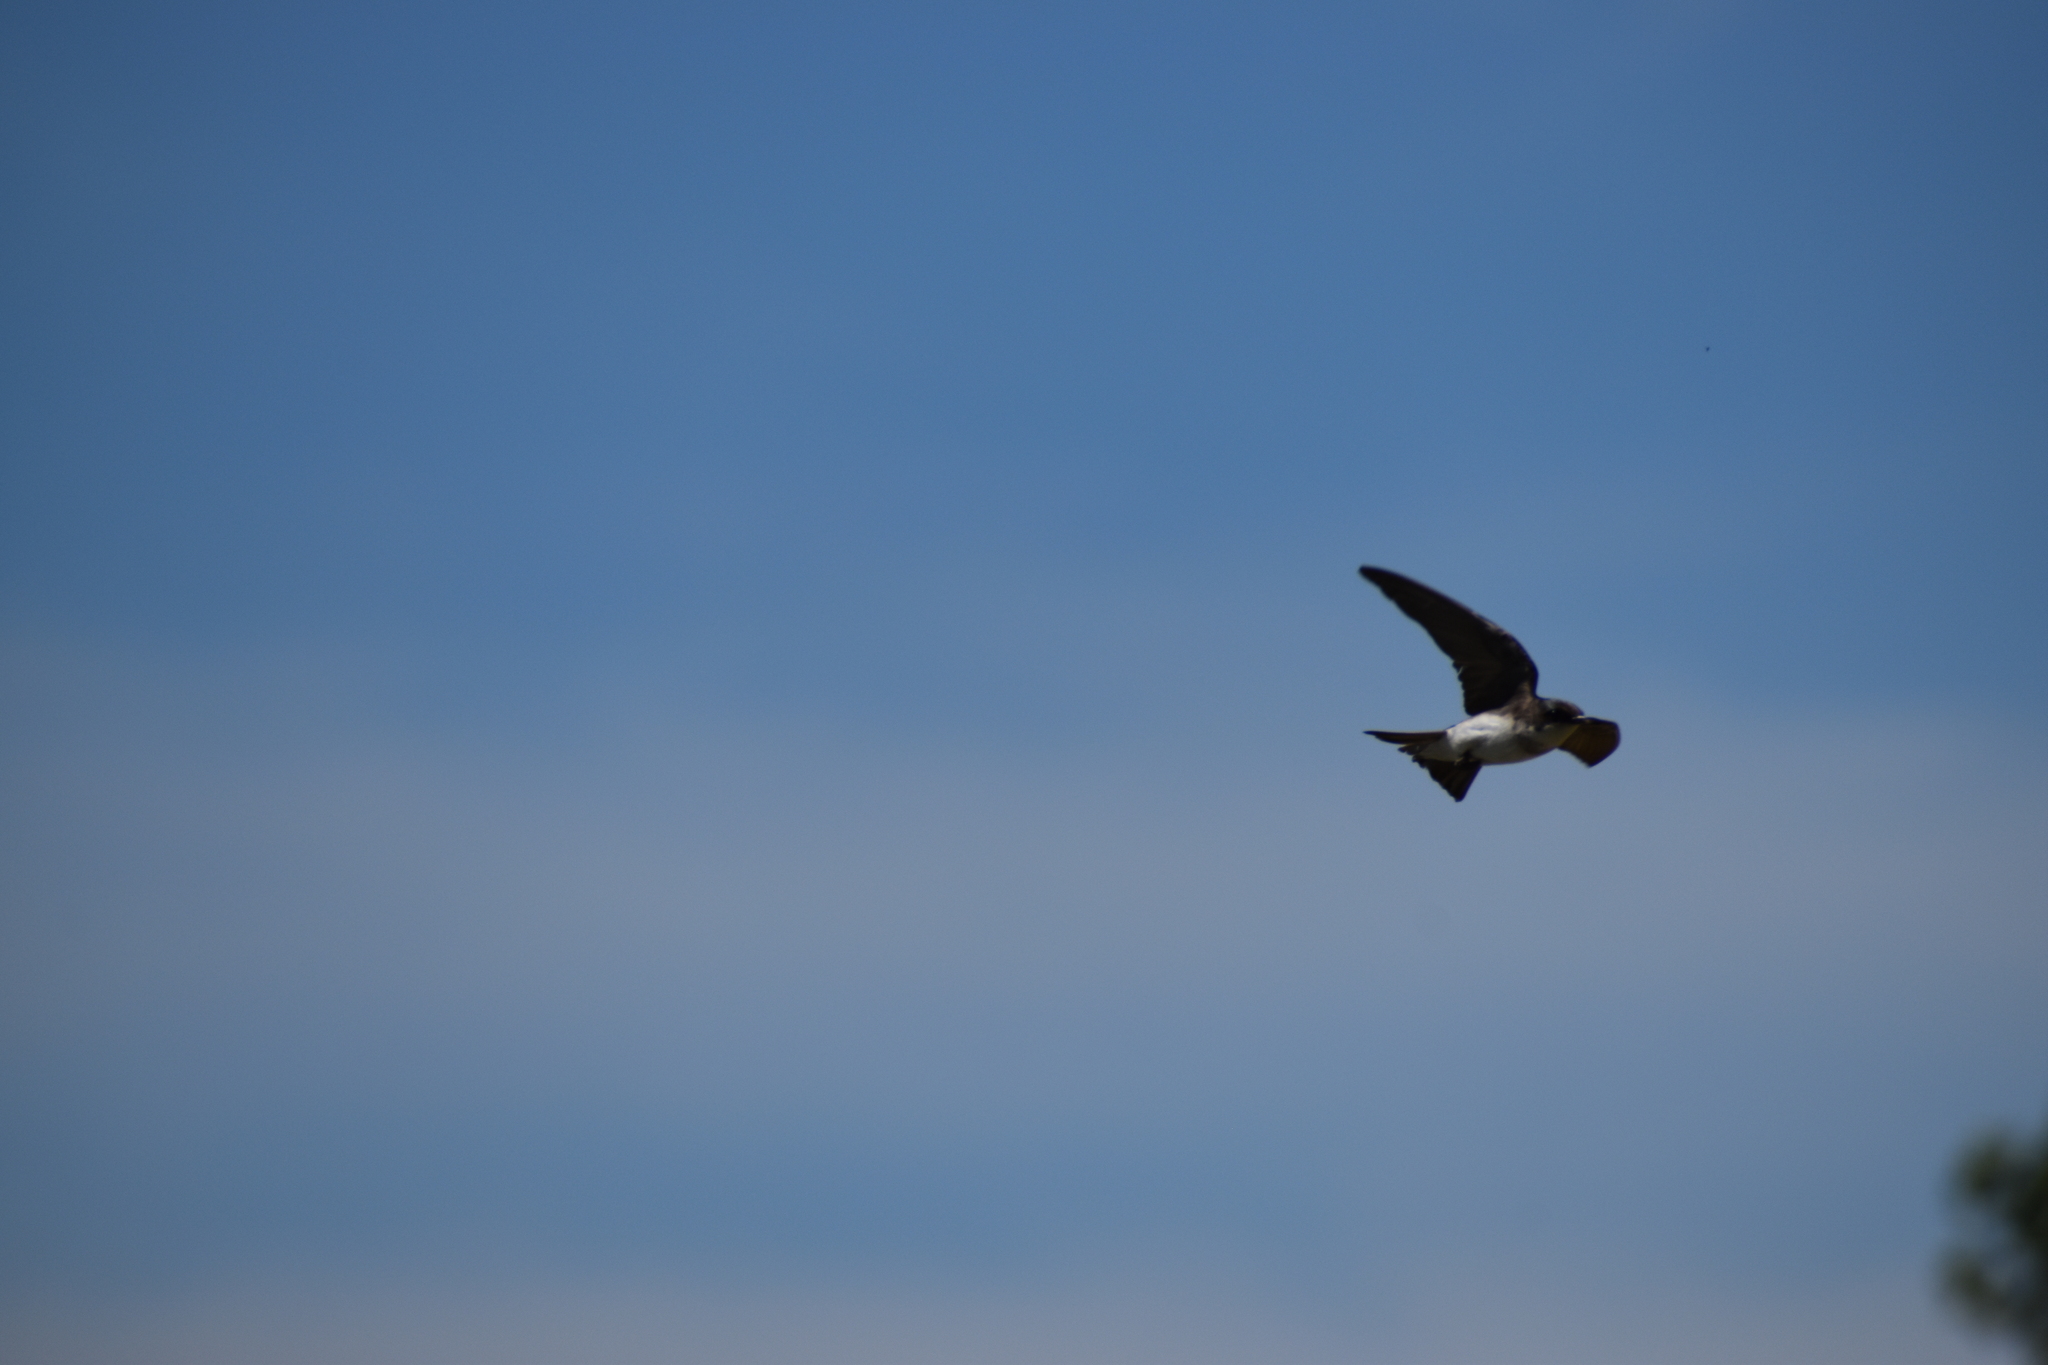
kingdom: Animalia
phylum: Chordata
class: Aves
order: Passeriformes
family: Hirundinidae
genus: Tachycineta
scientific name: Tachycineta bicolor
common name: Tree swallow
